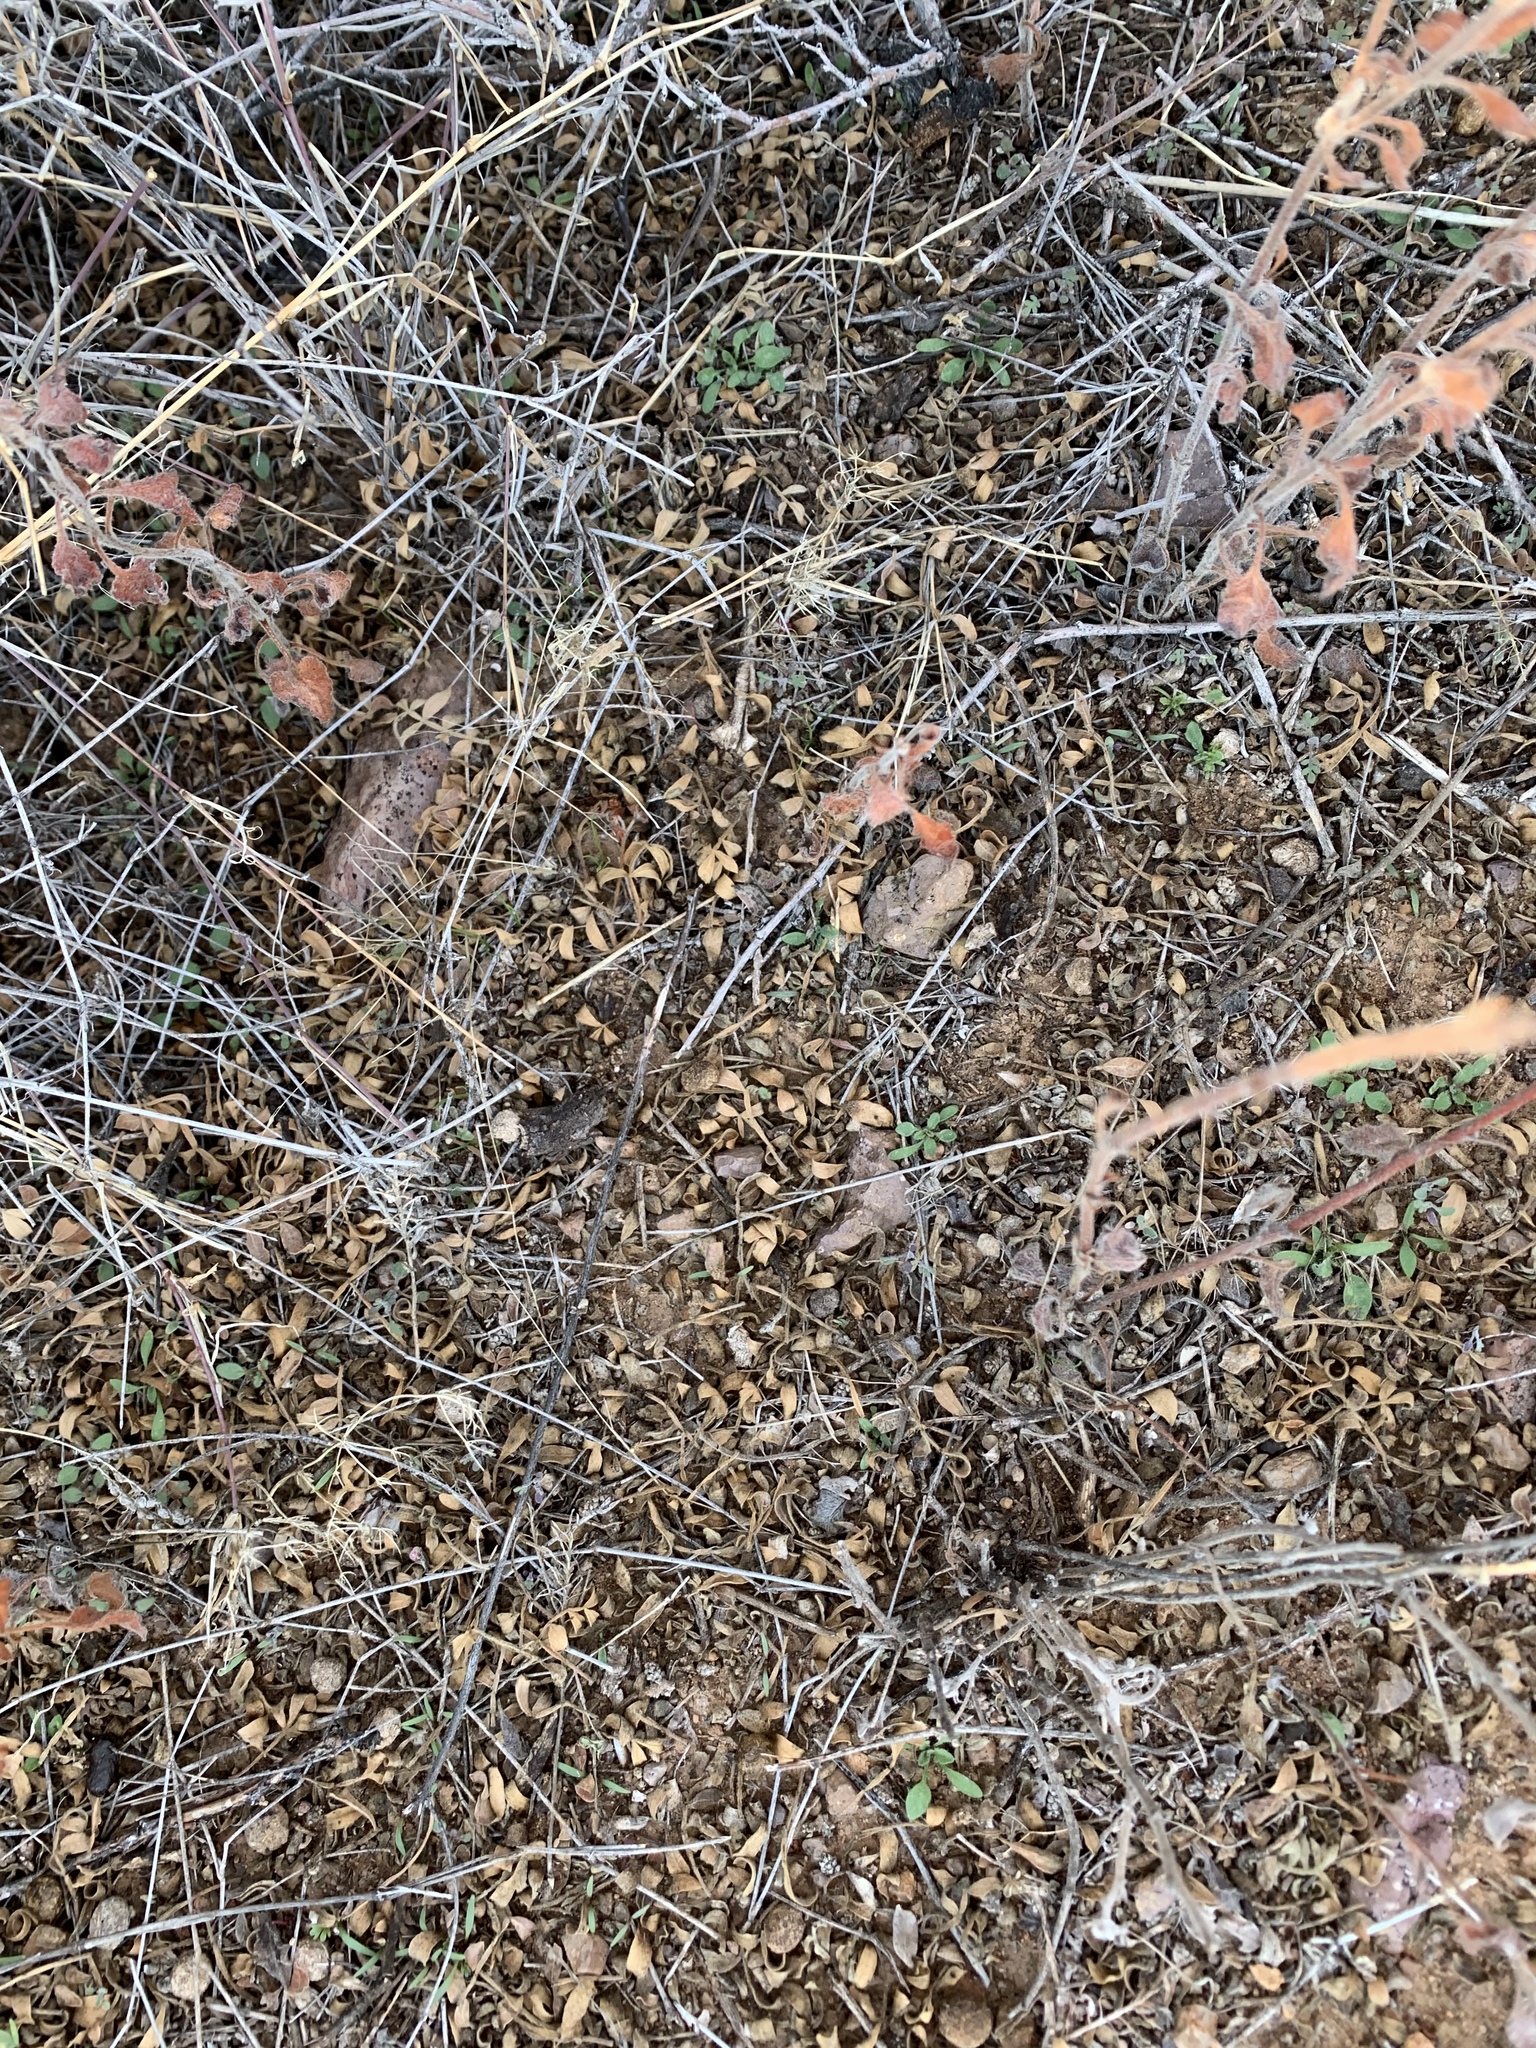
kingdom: Plantae
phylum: Tracheophyta
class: Magnoliopsida
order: Sapindales
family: Anacardiaceae
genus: Rhus
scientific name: Rhus microphylla
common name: Desert sumac
